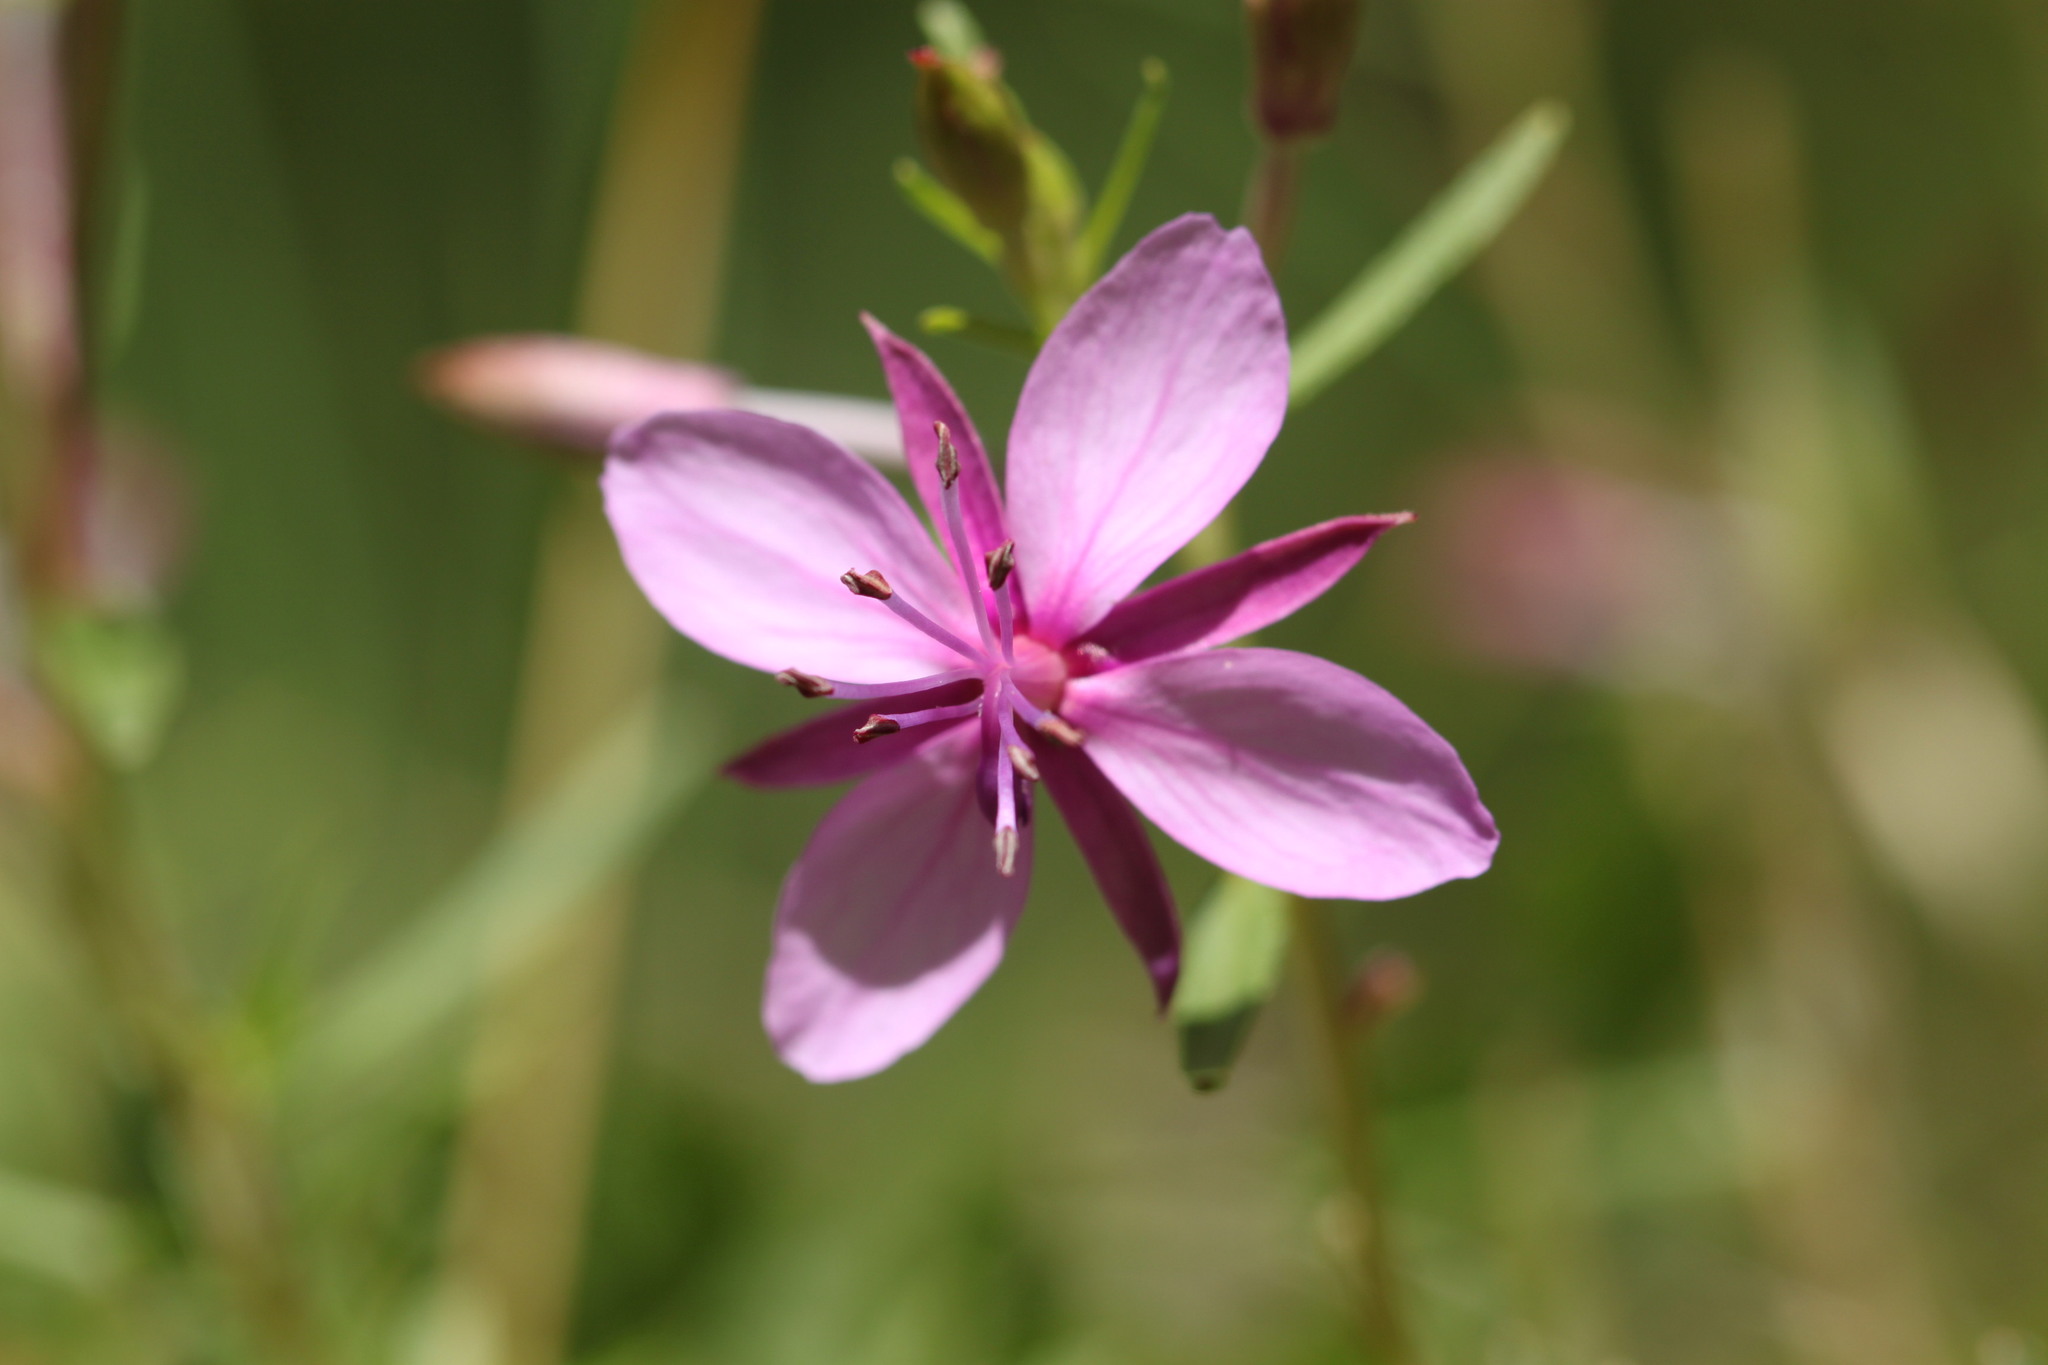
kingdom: Plantae
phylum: Tracheophyta
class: Magnoliopsida
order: Myrtales
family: Onagraceae
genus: Chamaenerion
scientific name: Chamaenerion fleischeri
